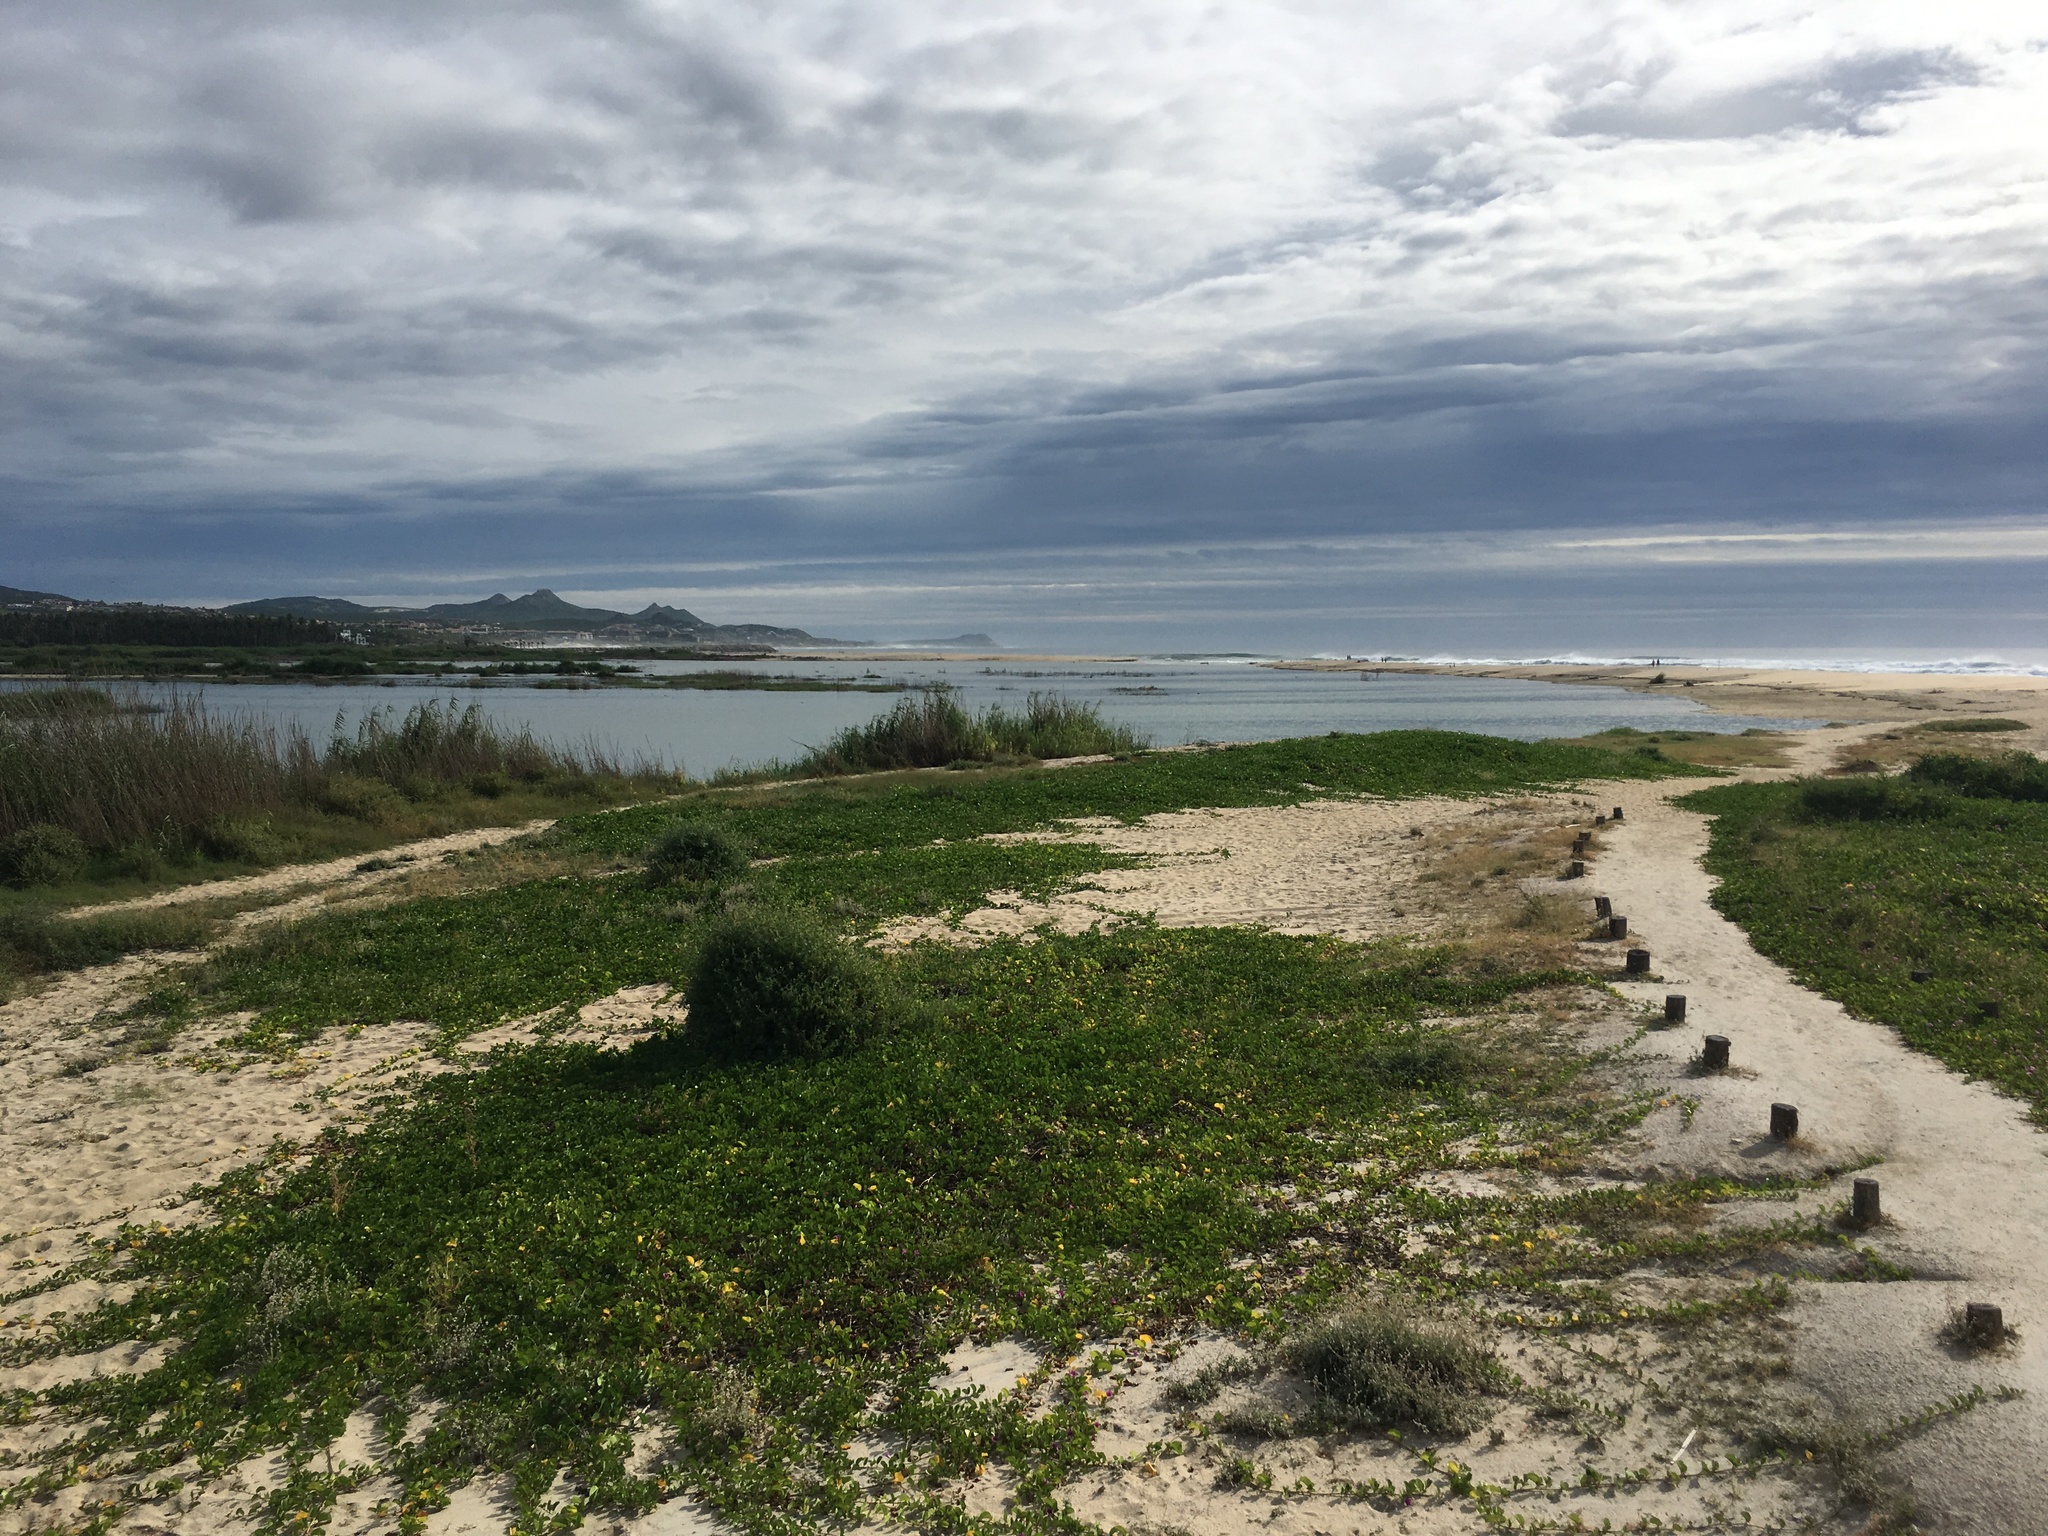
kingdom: Plantae
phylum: Tracheophyta
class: Magnoliopsida
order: Solanales
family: Convolvulaceae
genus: Ipomoea
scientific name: Ipomoea pes-caprae
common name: Beach morning glory
